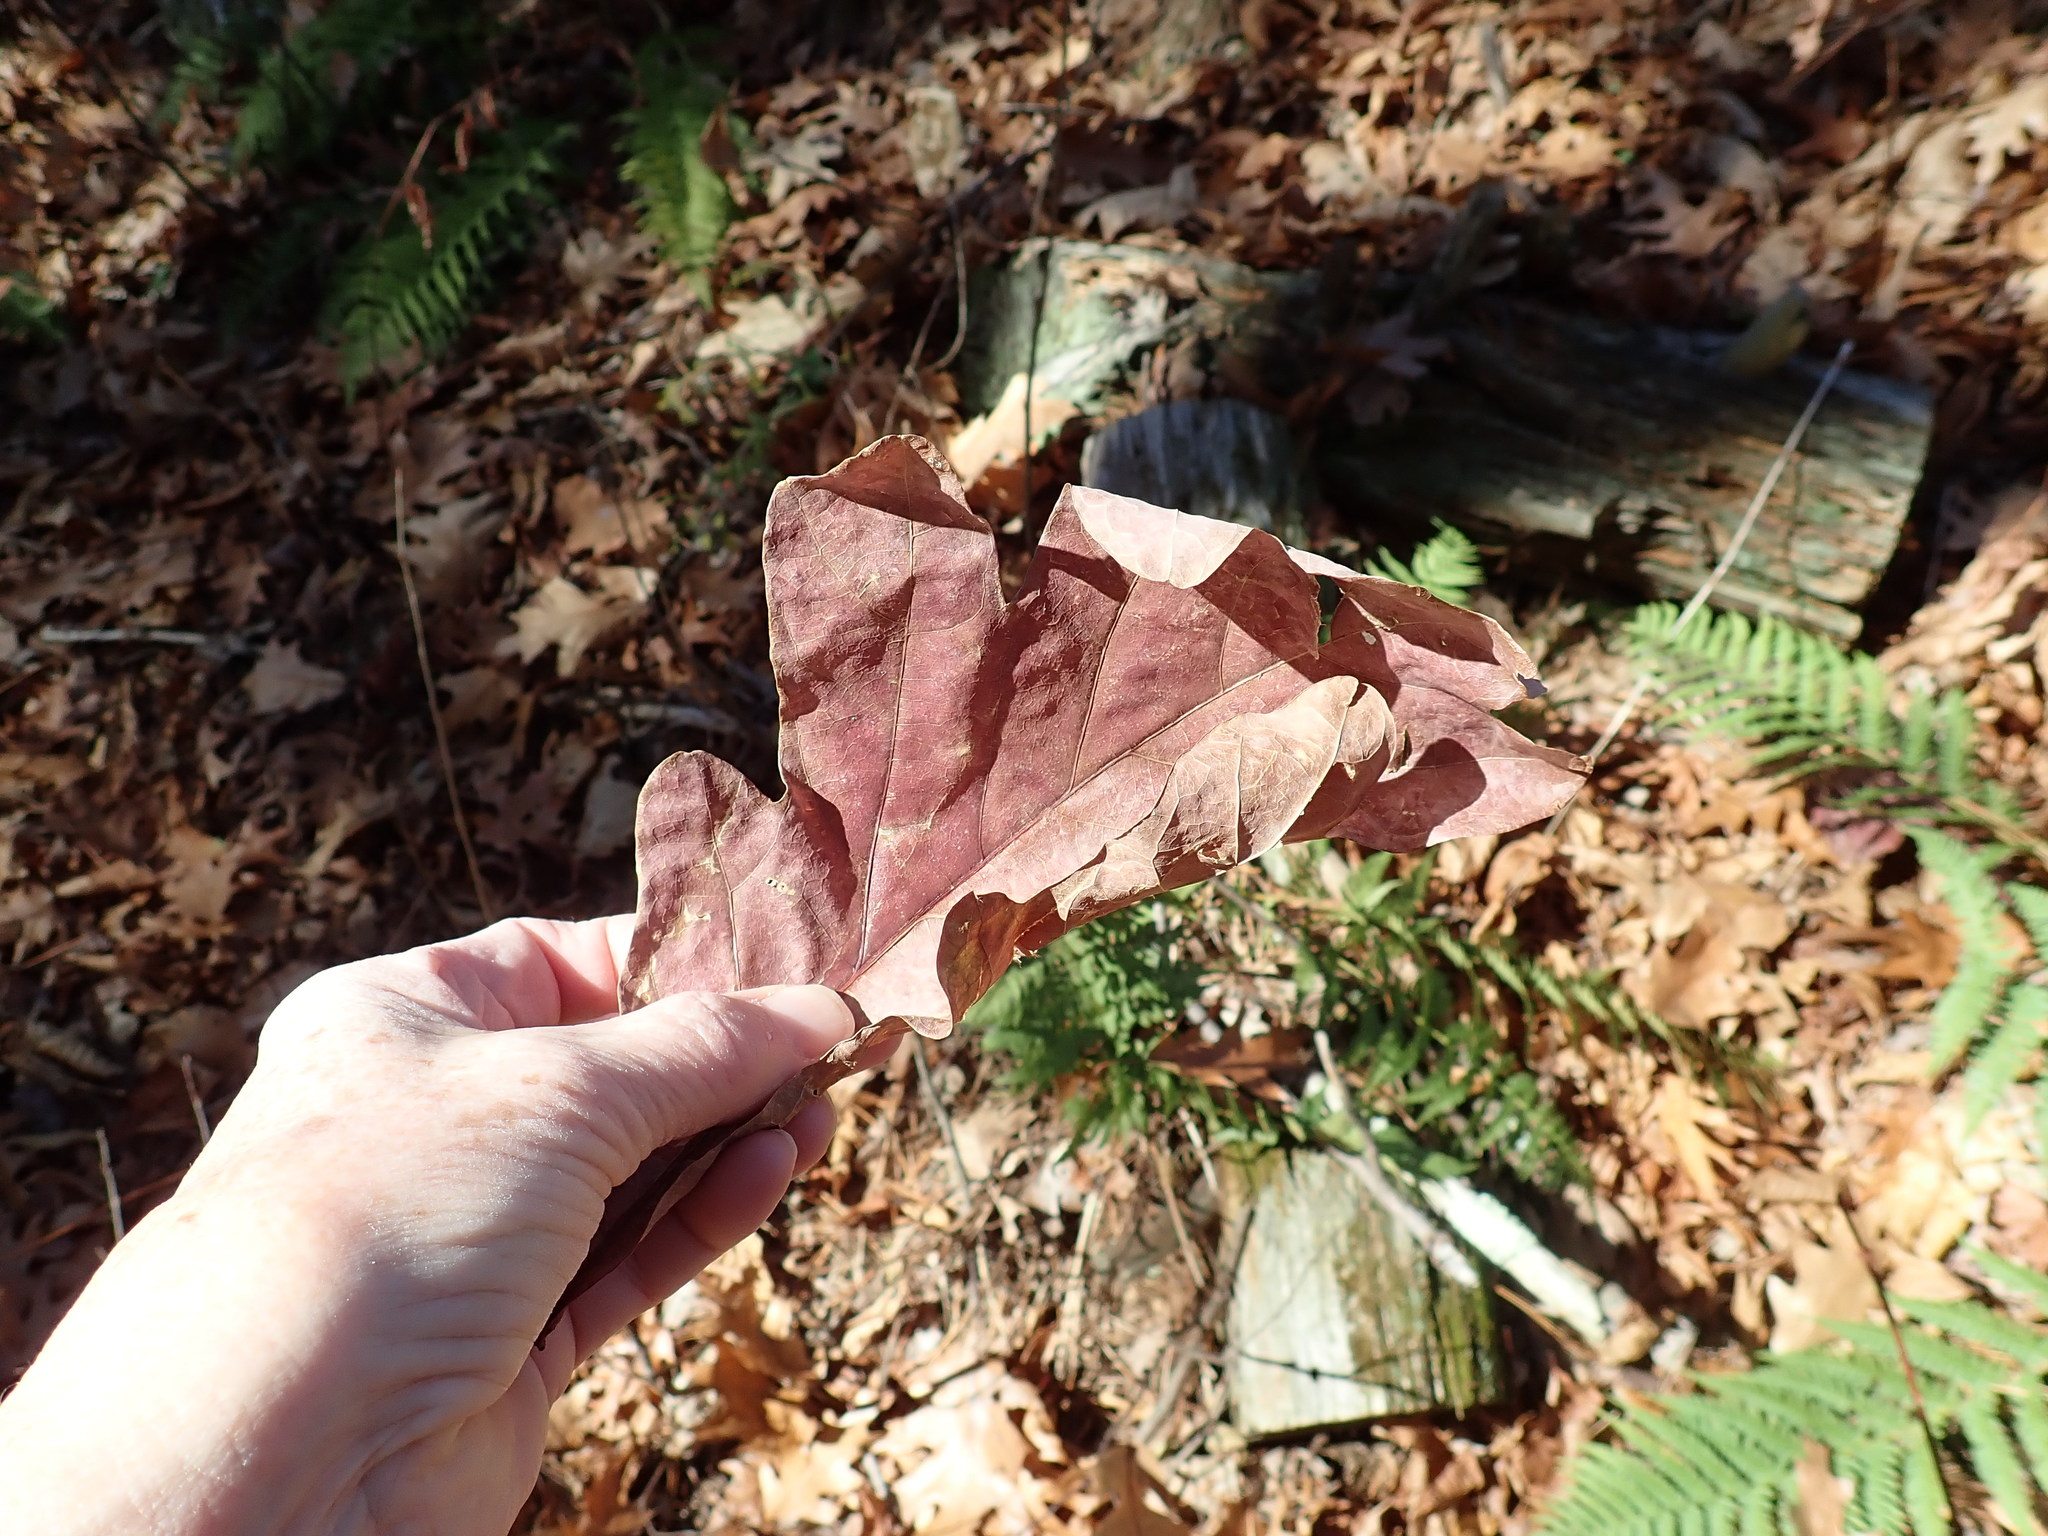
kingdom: Plantae
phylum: Tracheophyta
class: Magnoliopsida
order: Fagales
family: Fagaceae
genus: Quercus
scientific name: Quercus alba
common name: White oak
